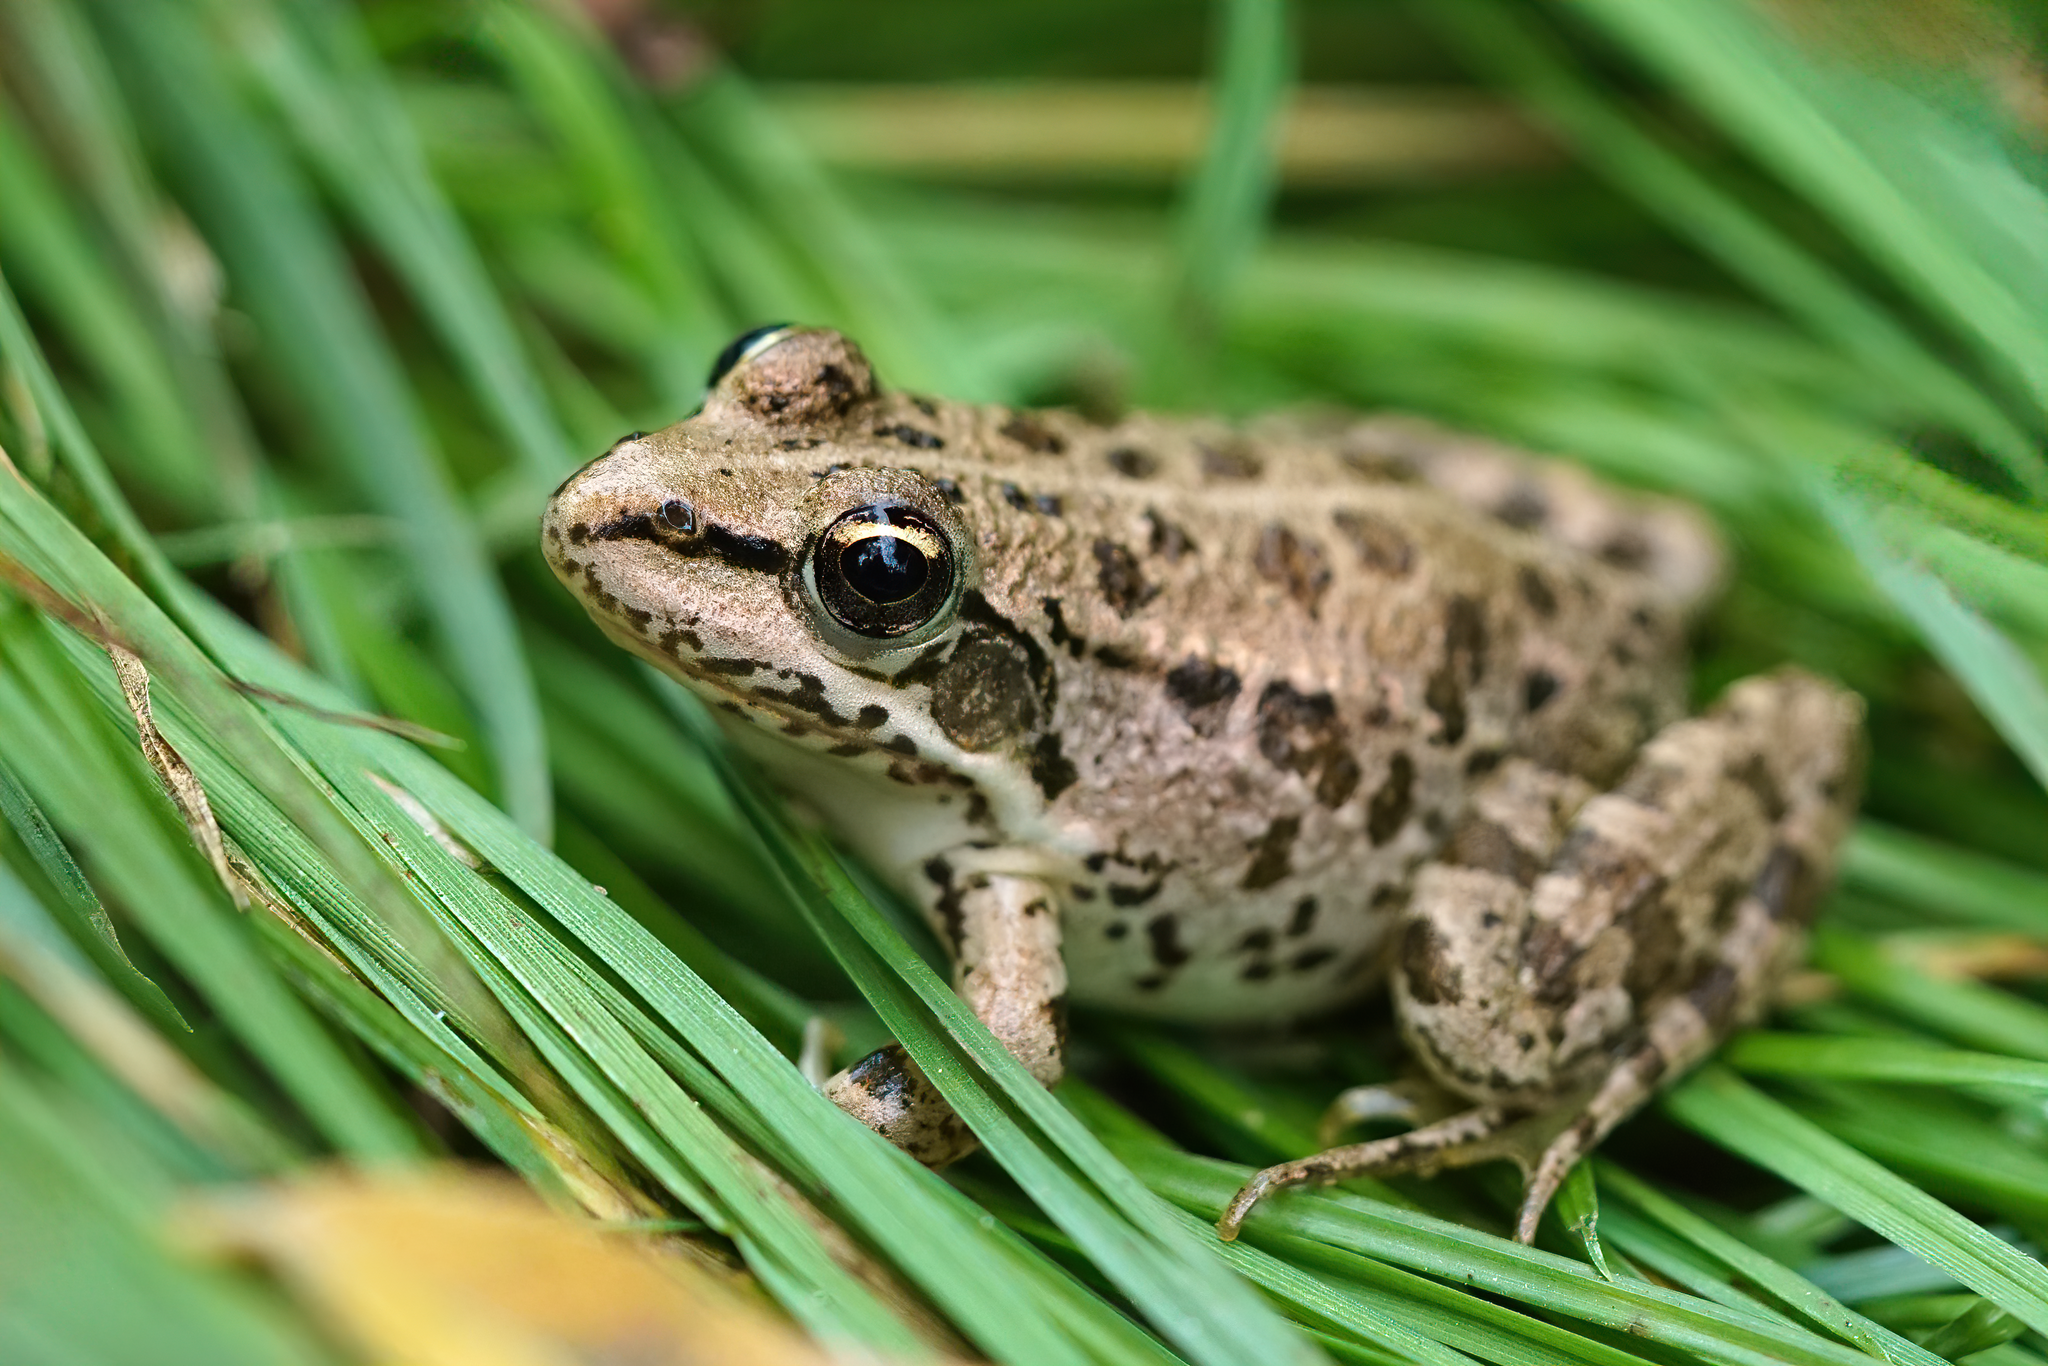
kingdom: Animalia
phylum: Chordata
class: Amphibia
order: Anura
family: Ranidae
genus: Pelophylax
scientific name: Pelophylax ridibundus
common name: Marsh frog
